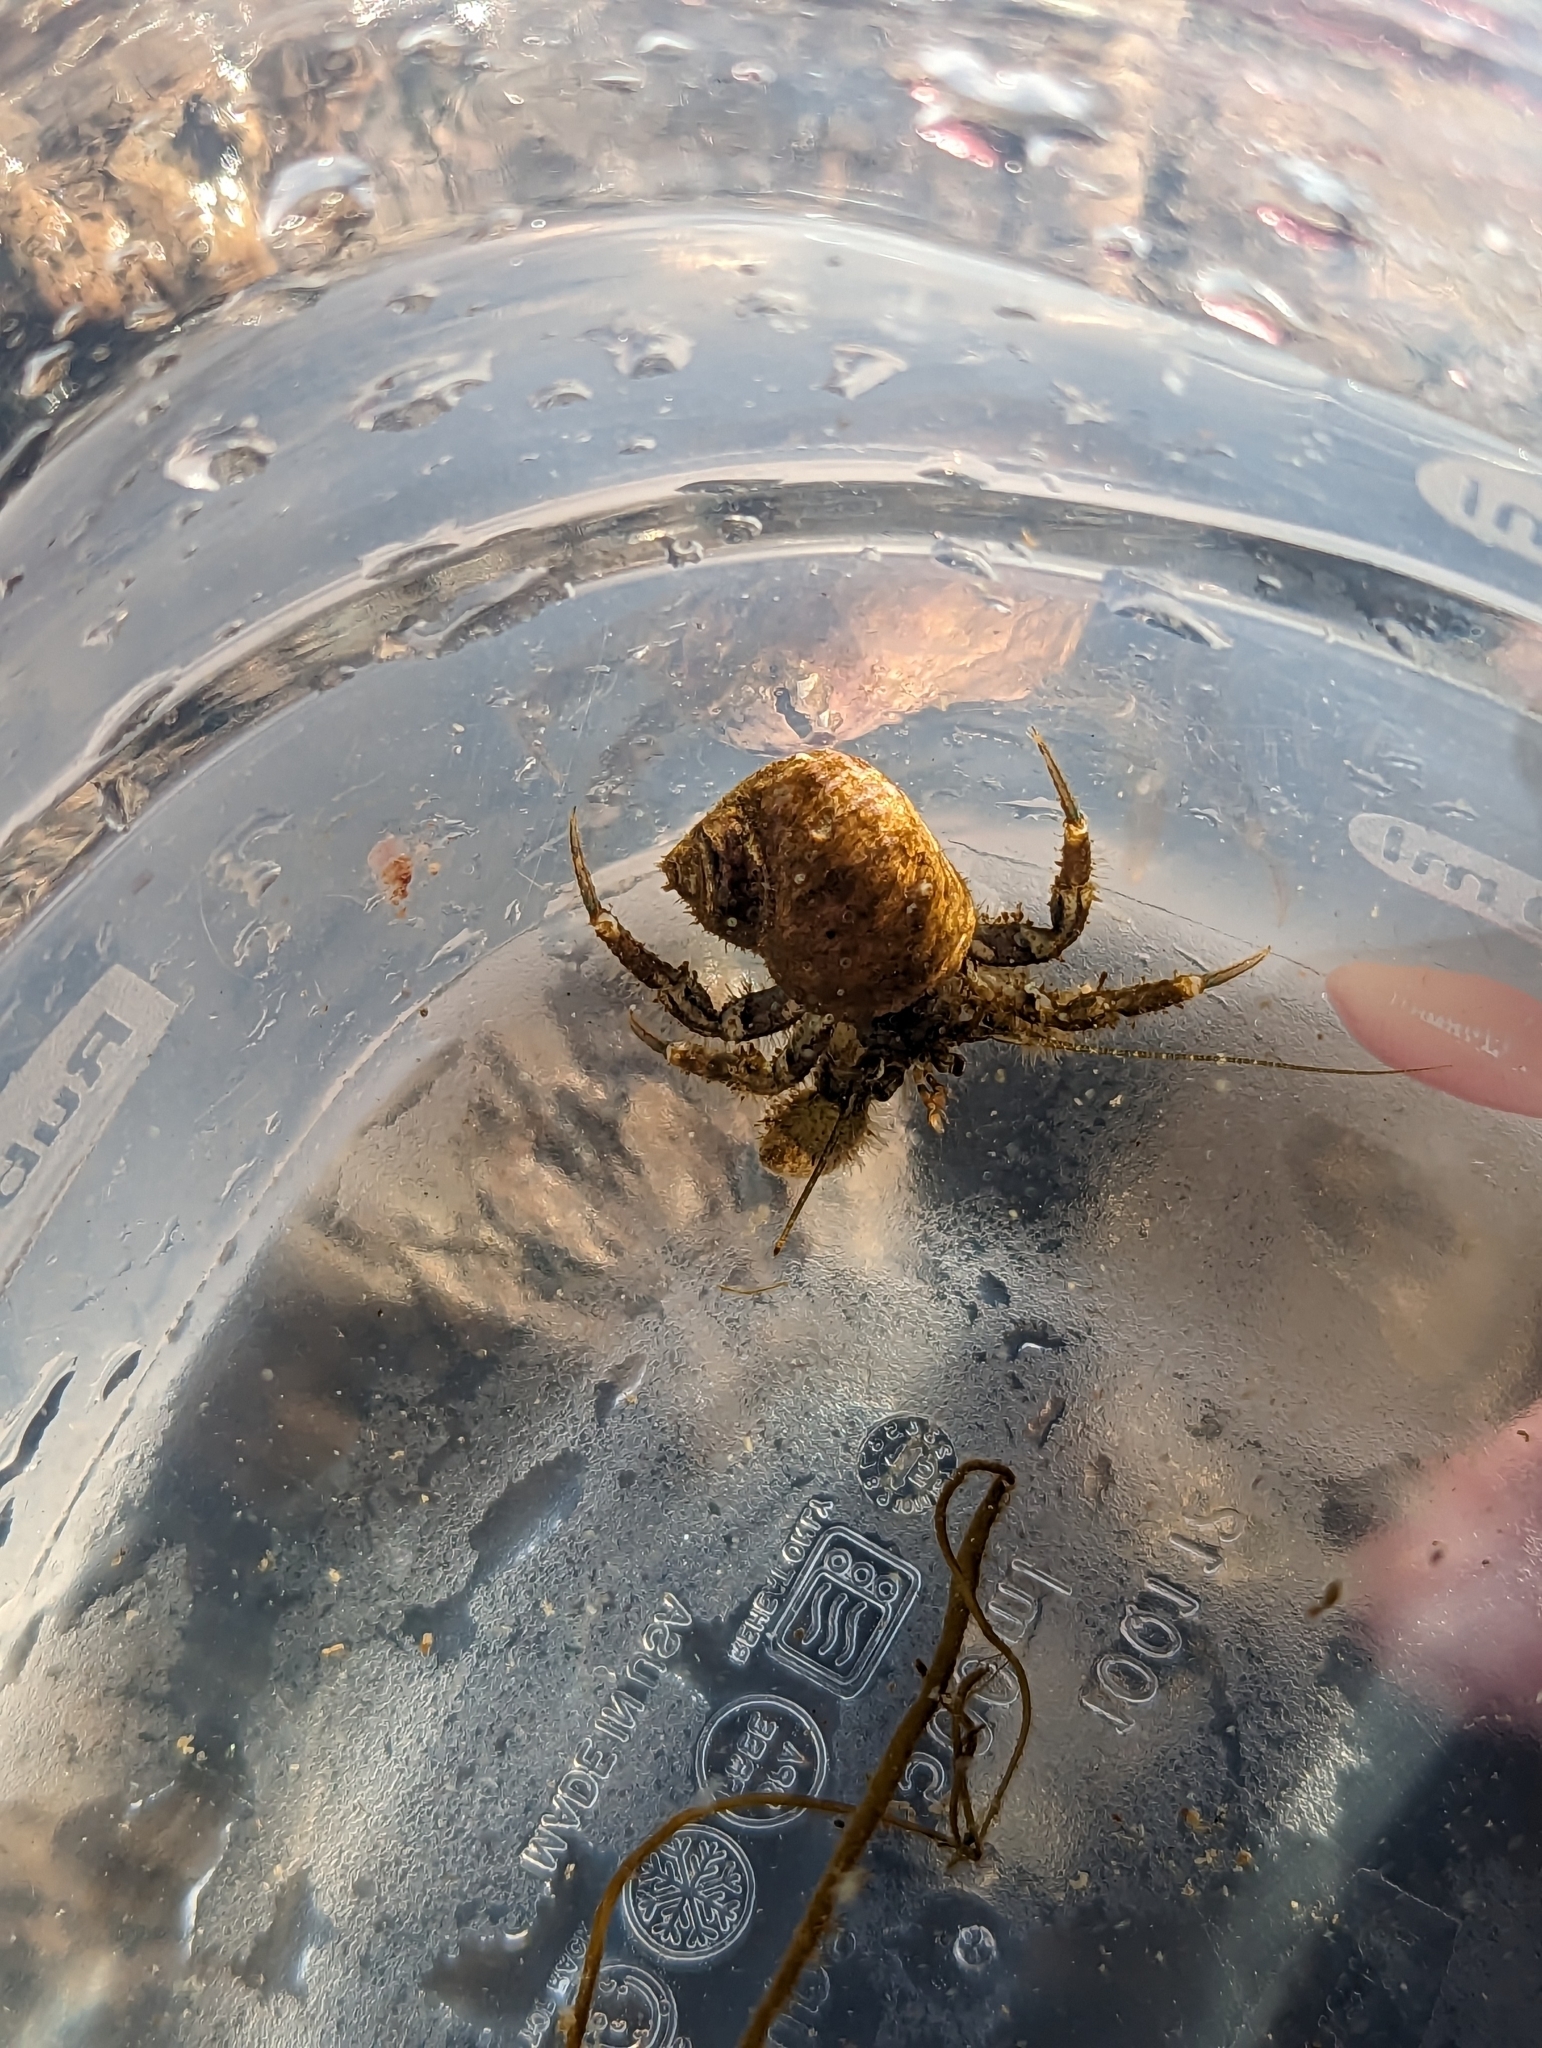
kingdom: Animalia
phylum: Arthropoda
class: Malacostraca
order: Decapoda
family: Paguridae
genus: Pagurus
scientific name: Pagurus hirsutiusculus
